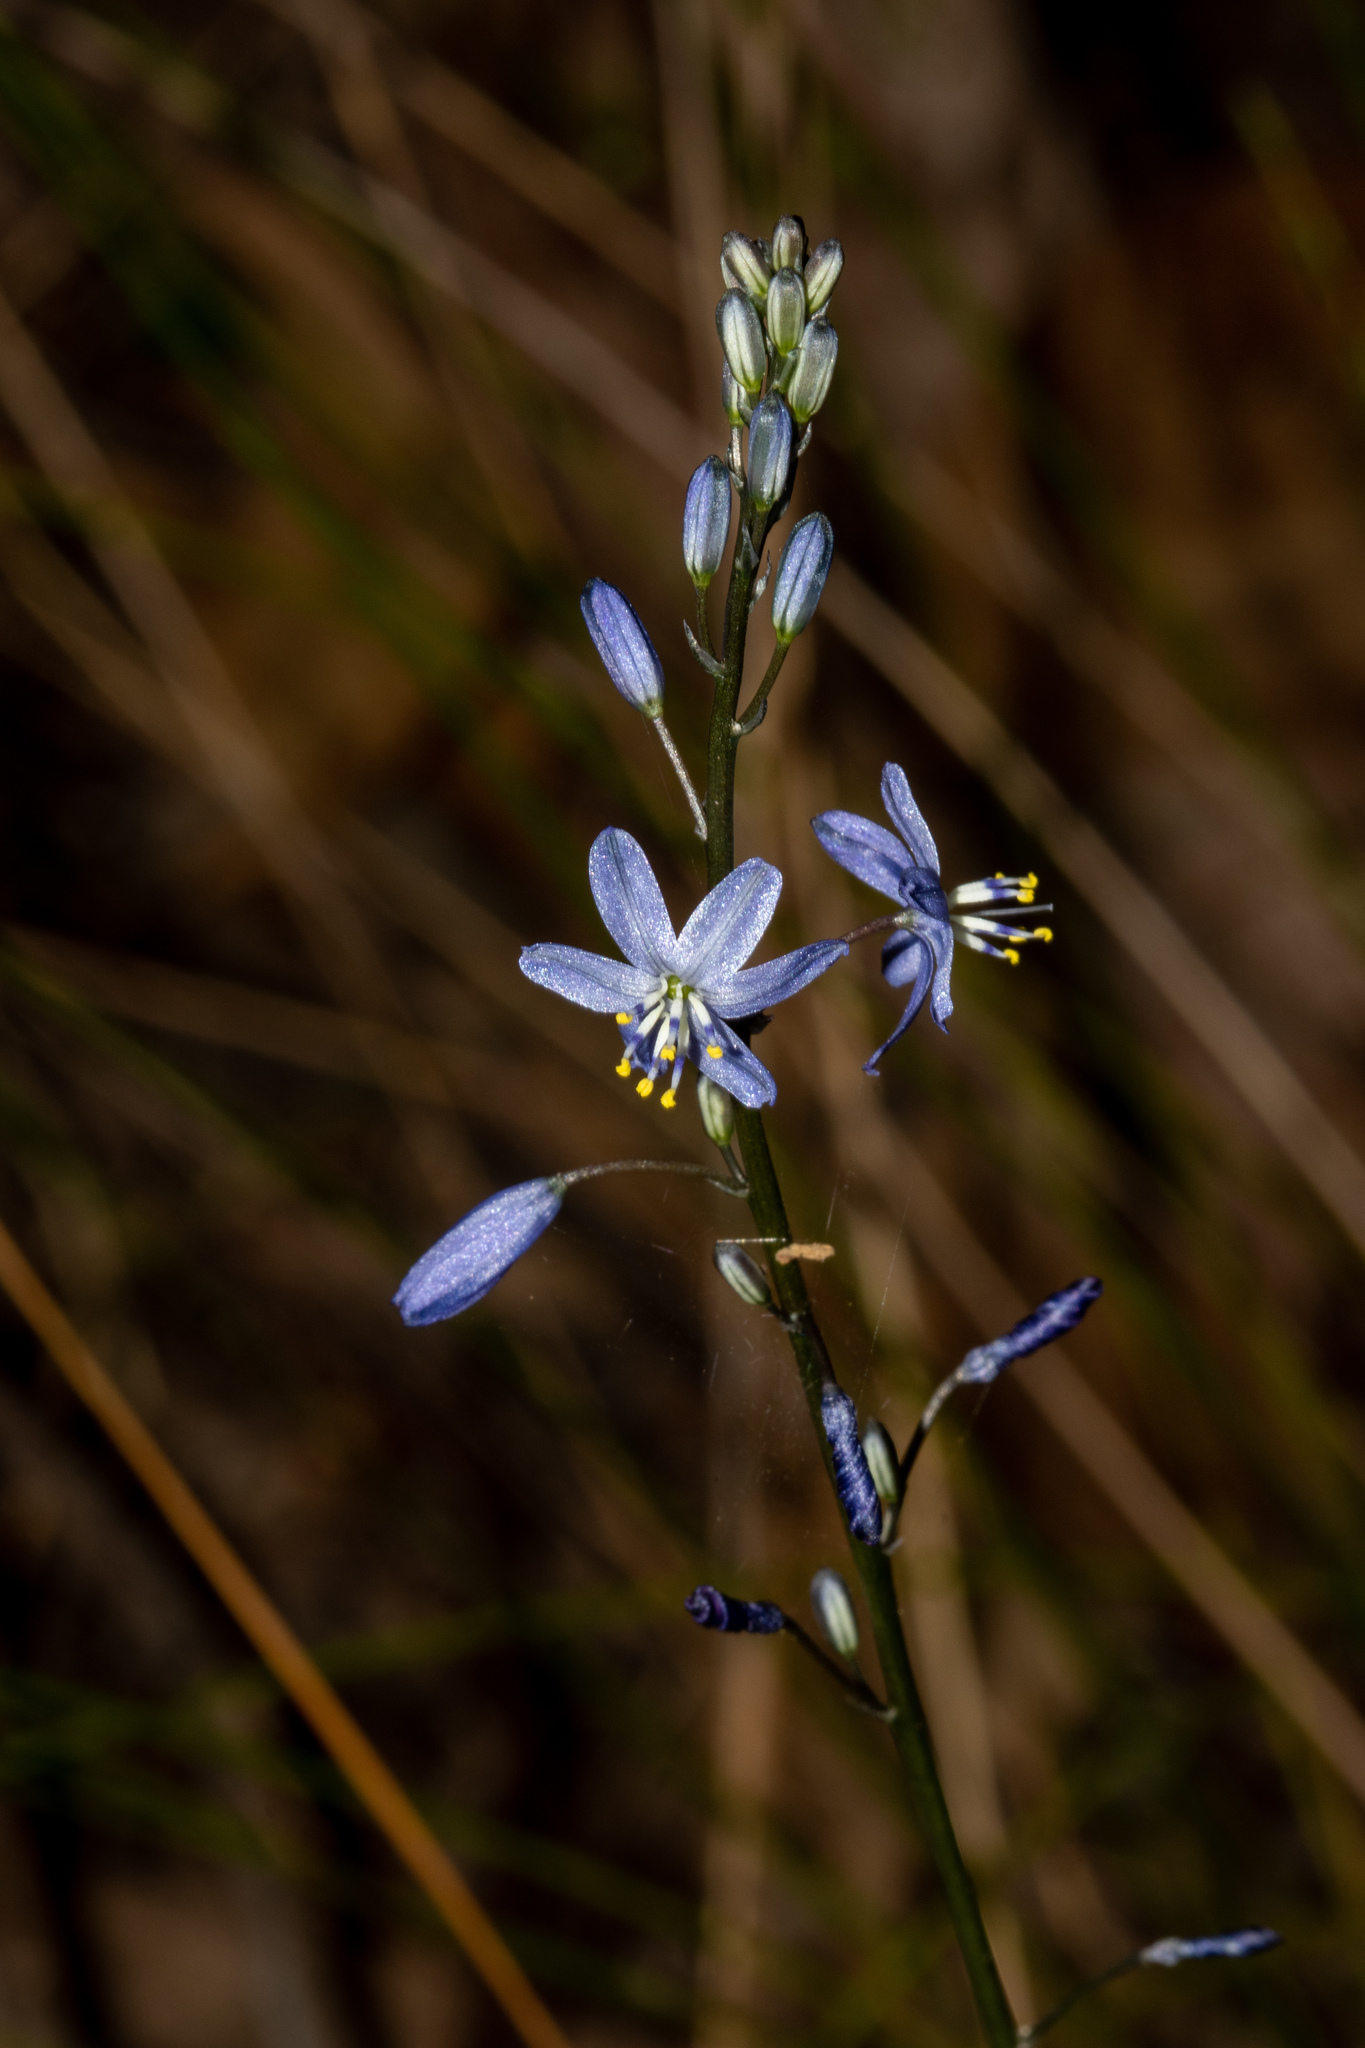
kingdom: Plantae
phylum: Tracheophyta
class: Liliopsida
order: Asparagales
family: Asphodelaceae
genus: Caesia
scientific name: Caesia calliantha
